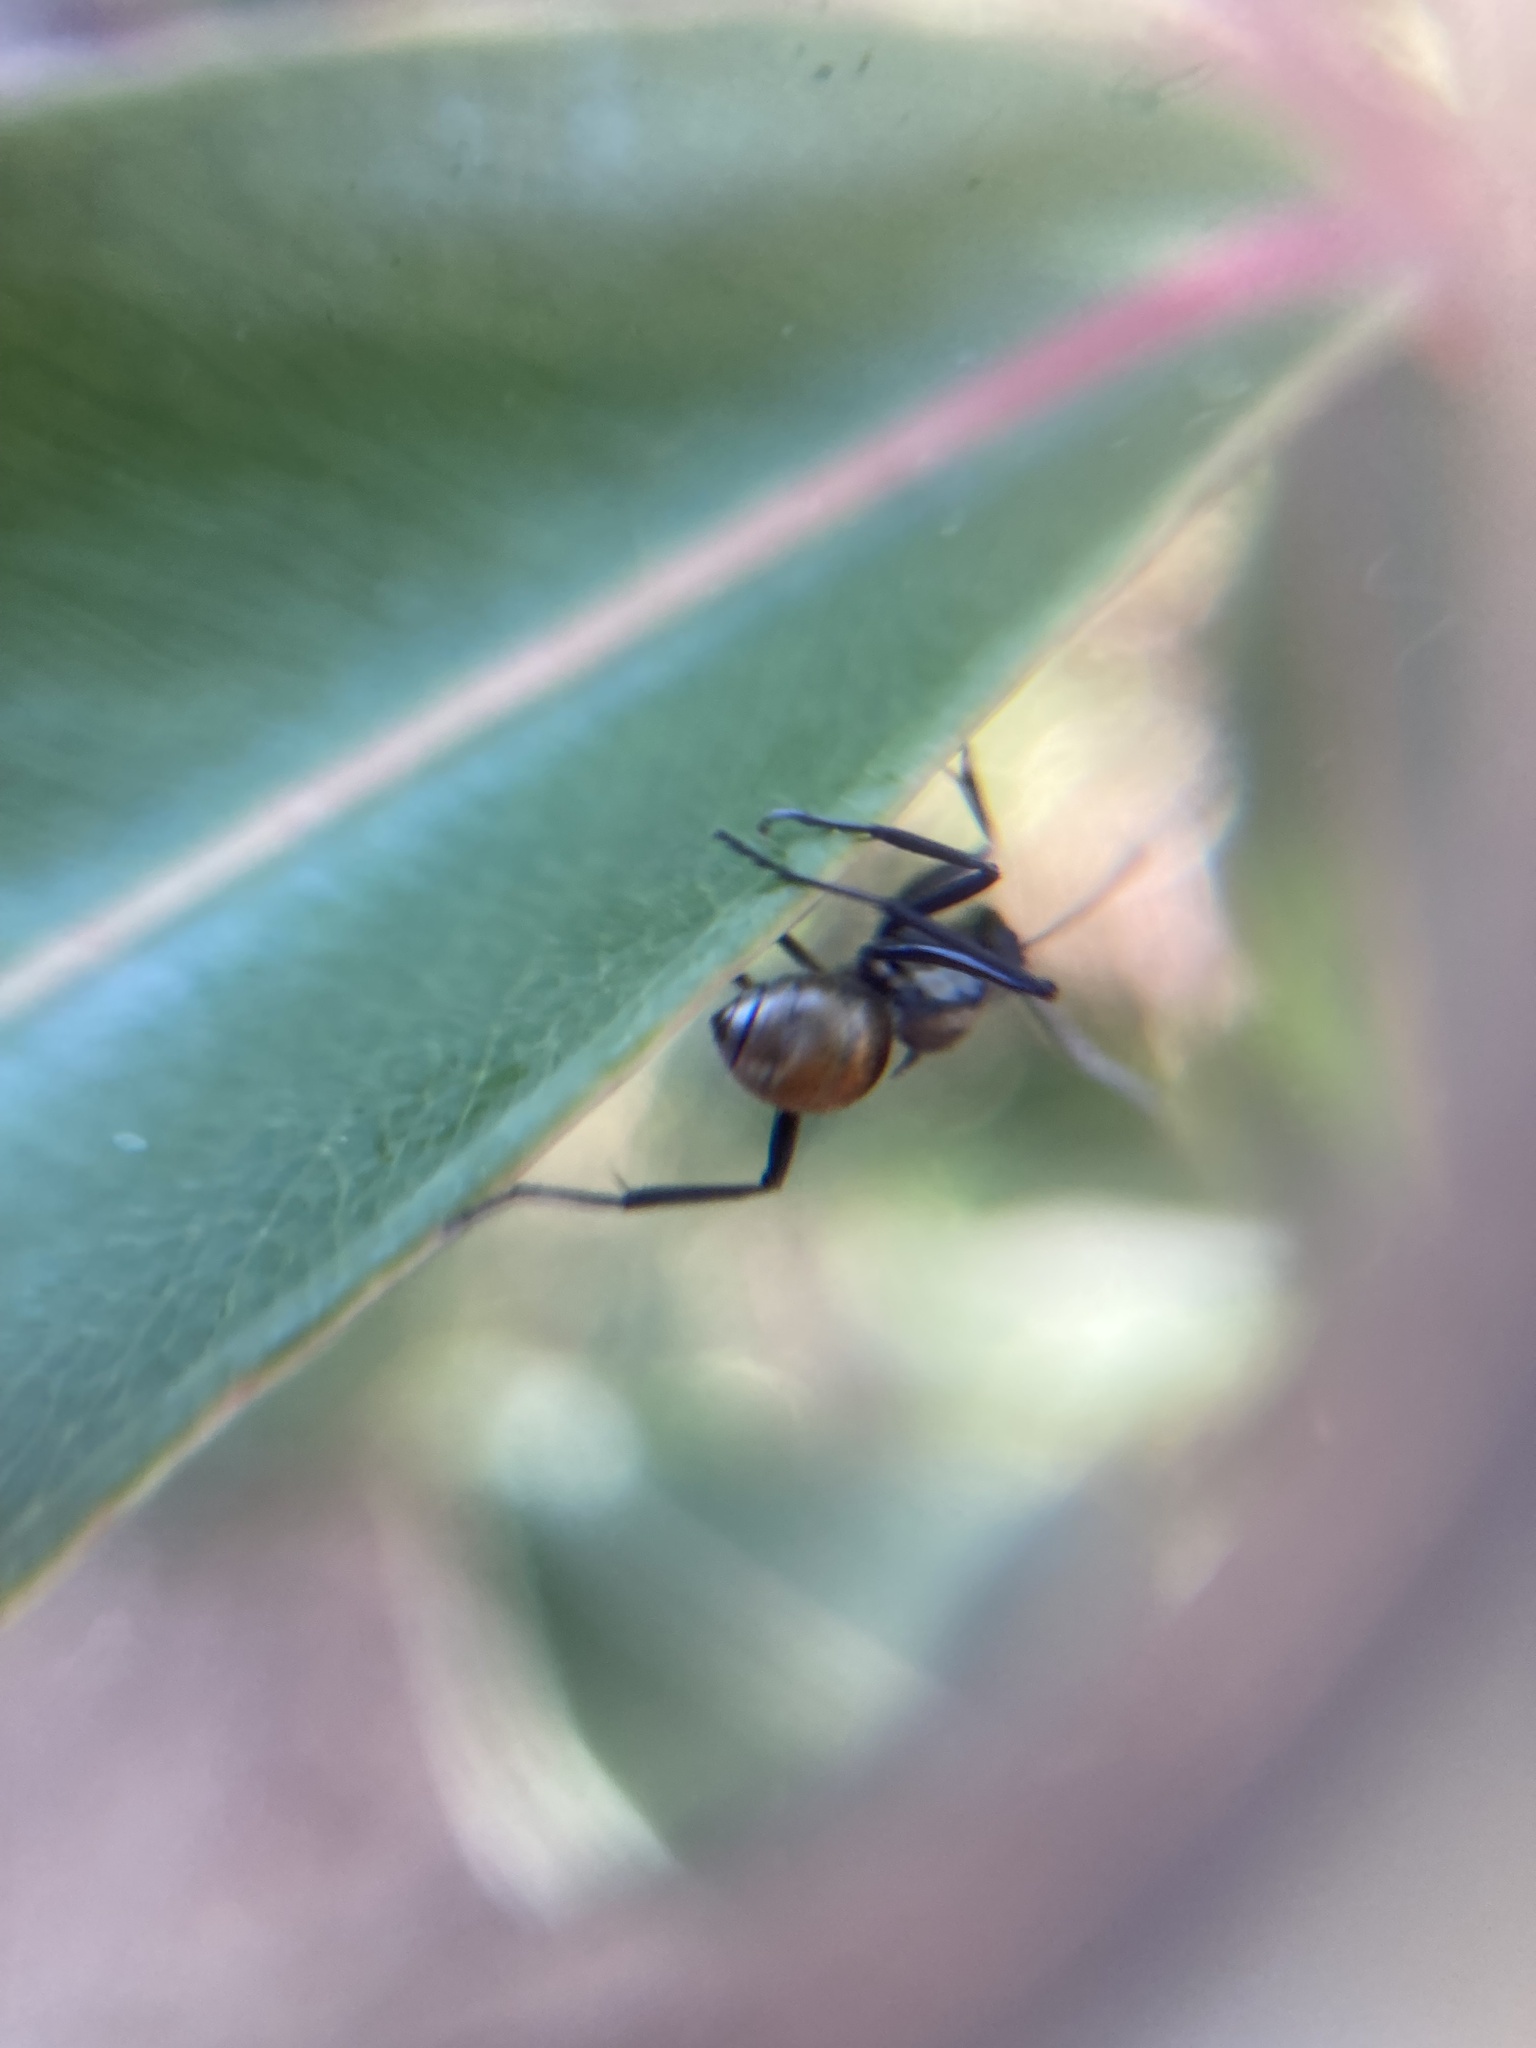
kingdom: Animalia
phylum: Arthropoda
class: Insecta
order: Hymenoptera
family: Formicidae
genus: Polyrhachis
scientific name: Polyrhachis ammon
